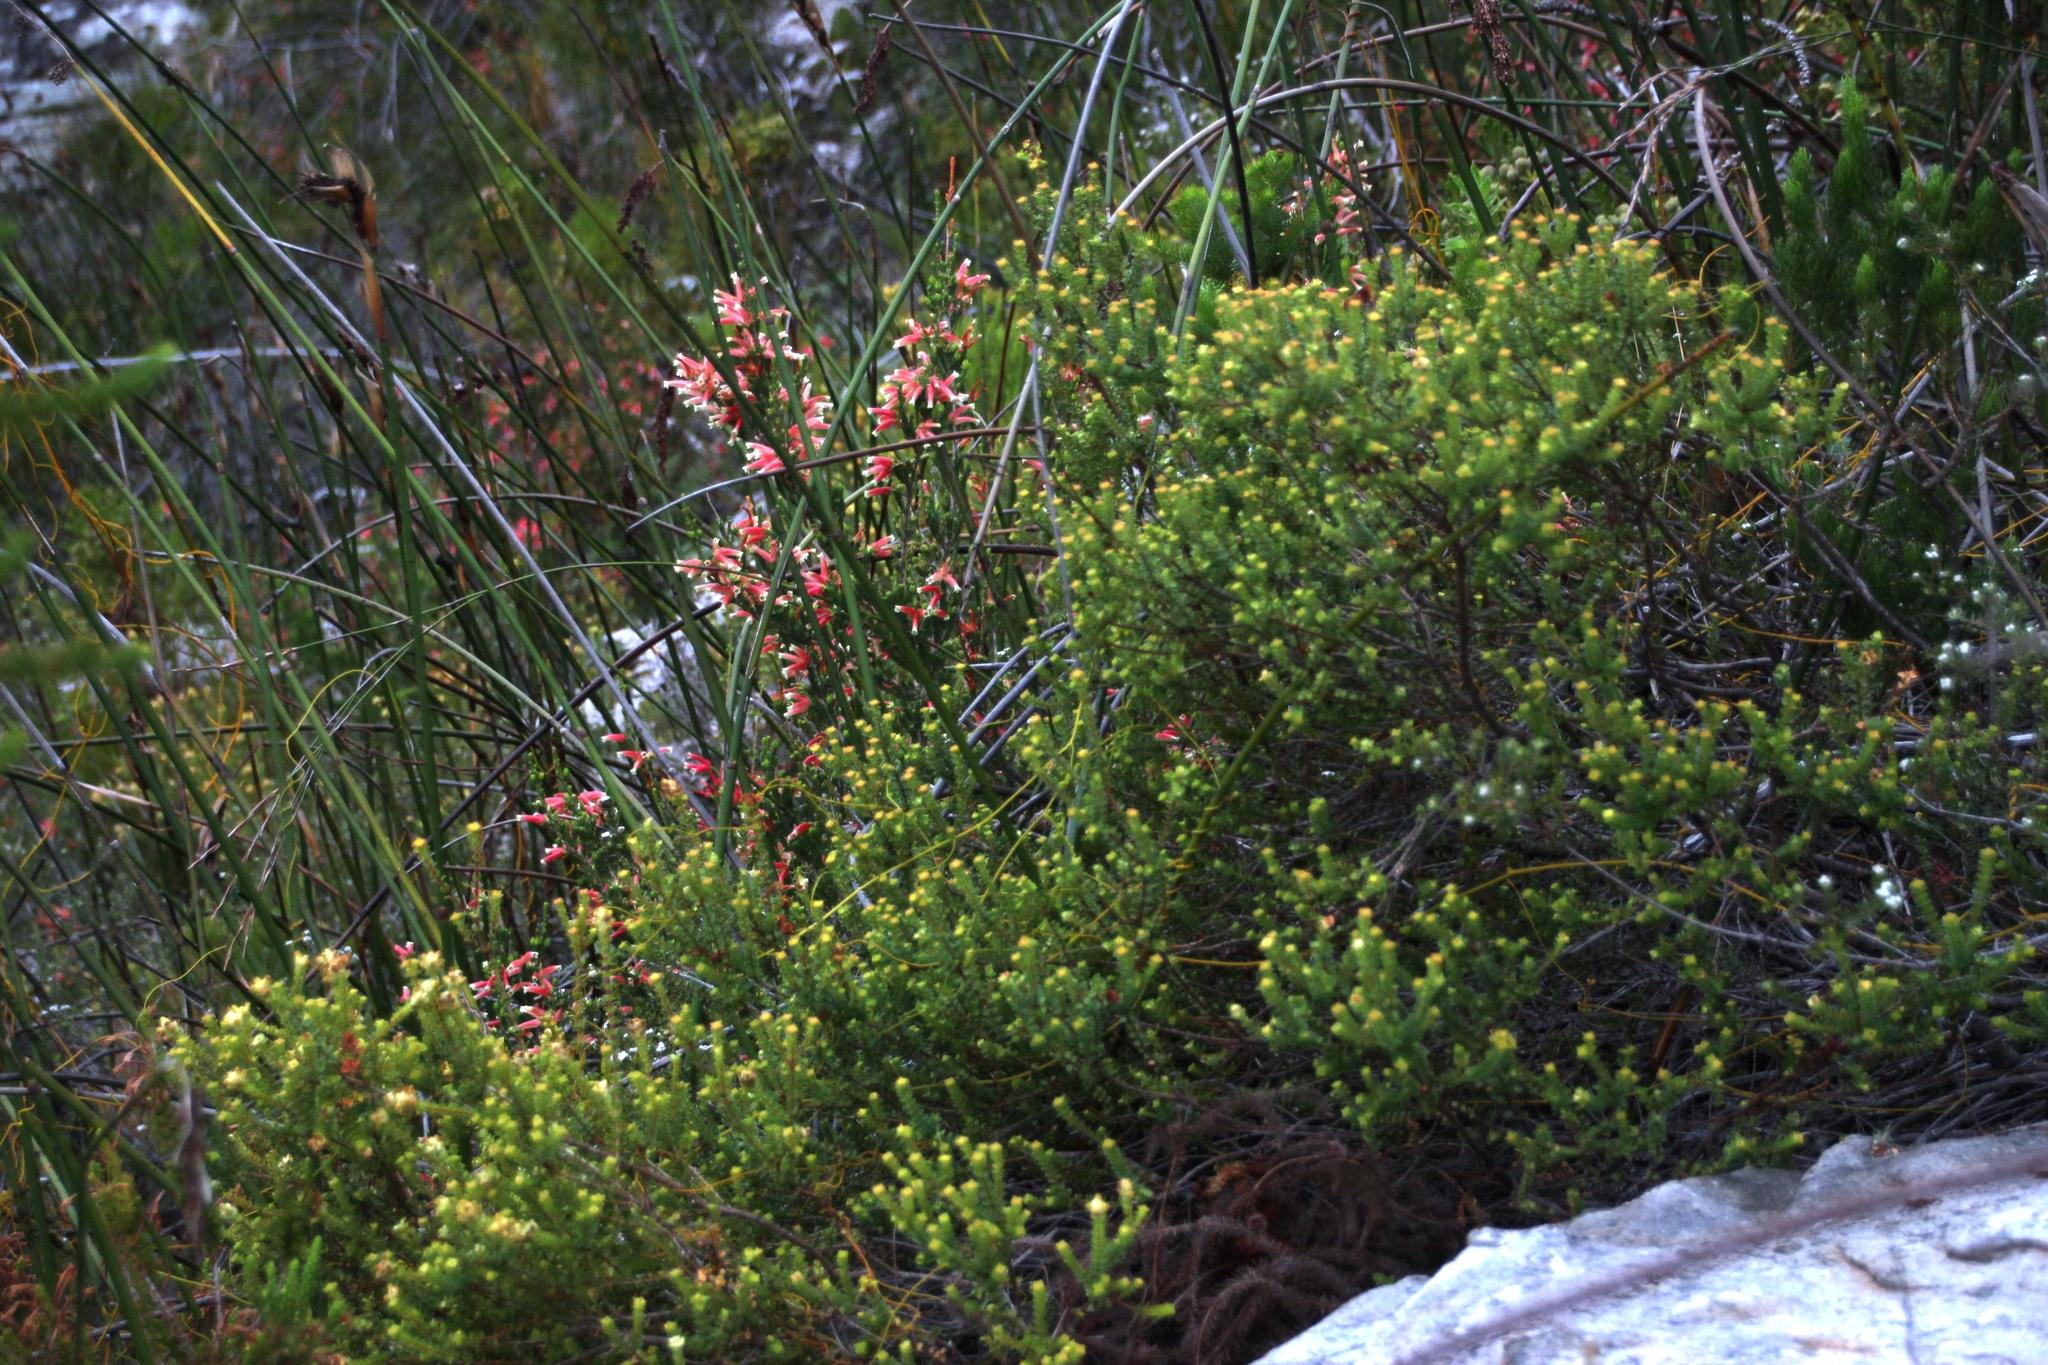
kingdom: Plantae
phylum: Tracheophyta
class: Magnoliopsida
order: Myrtales
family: Penaeaceae
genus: Penaea
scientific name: Penaea mucronata
